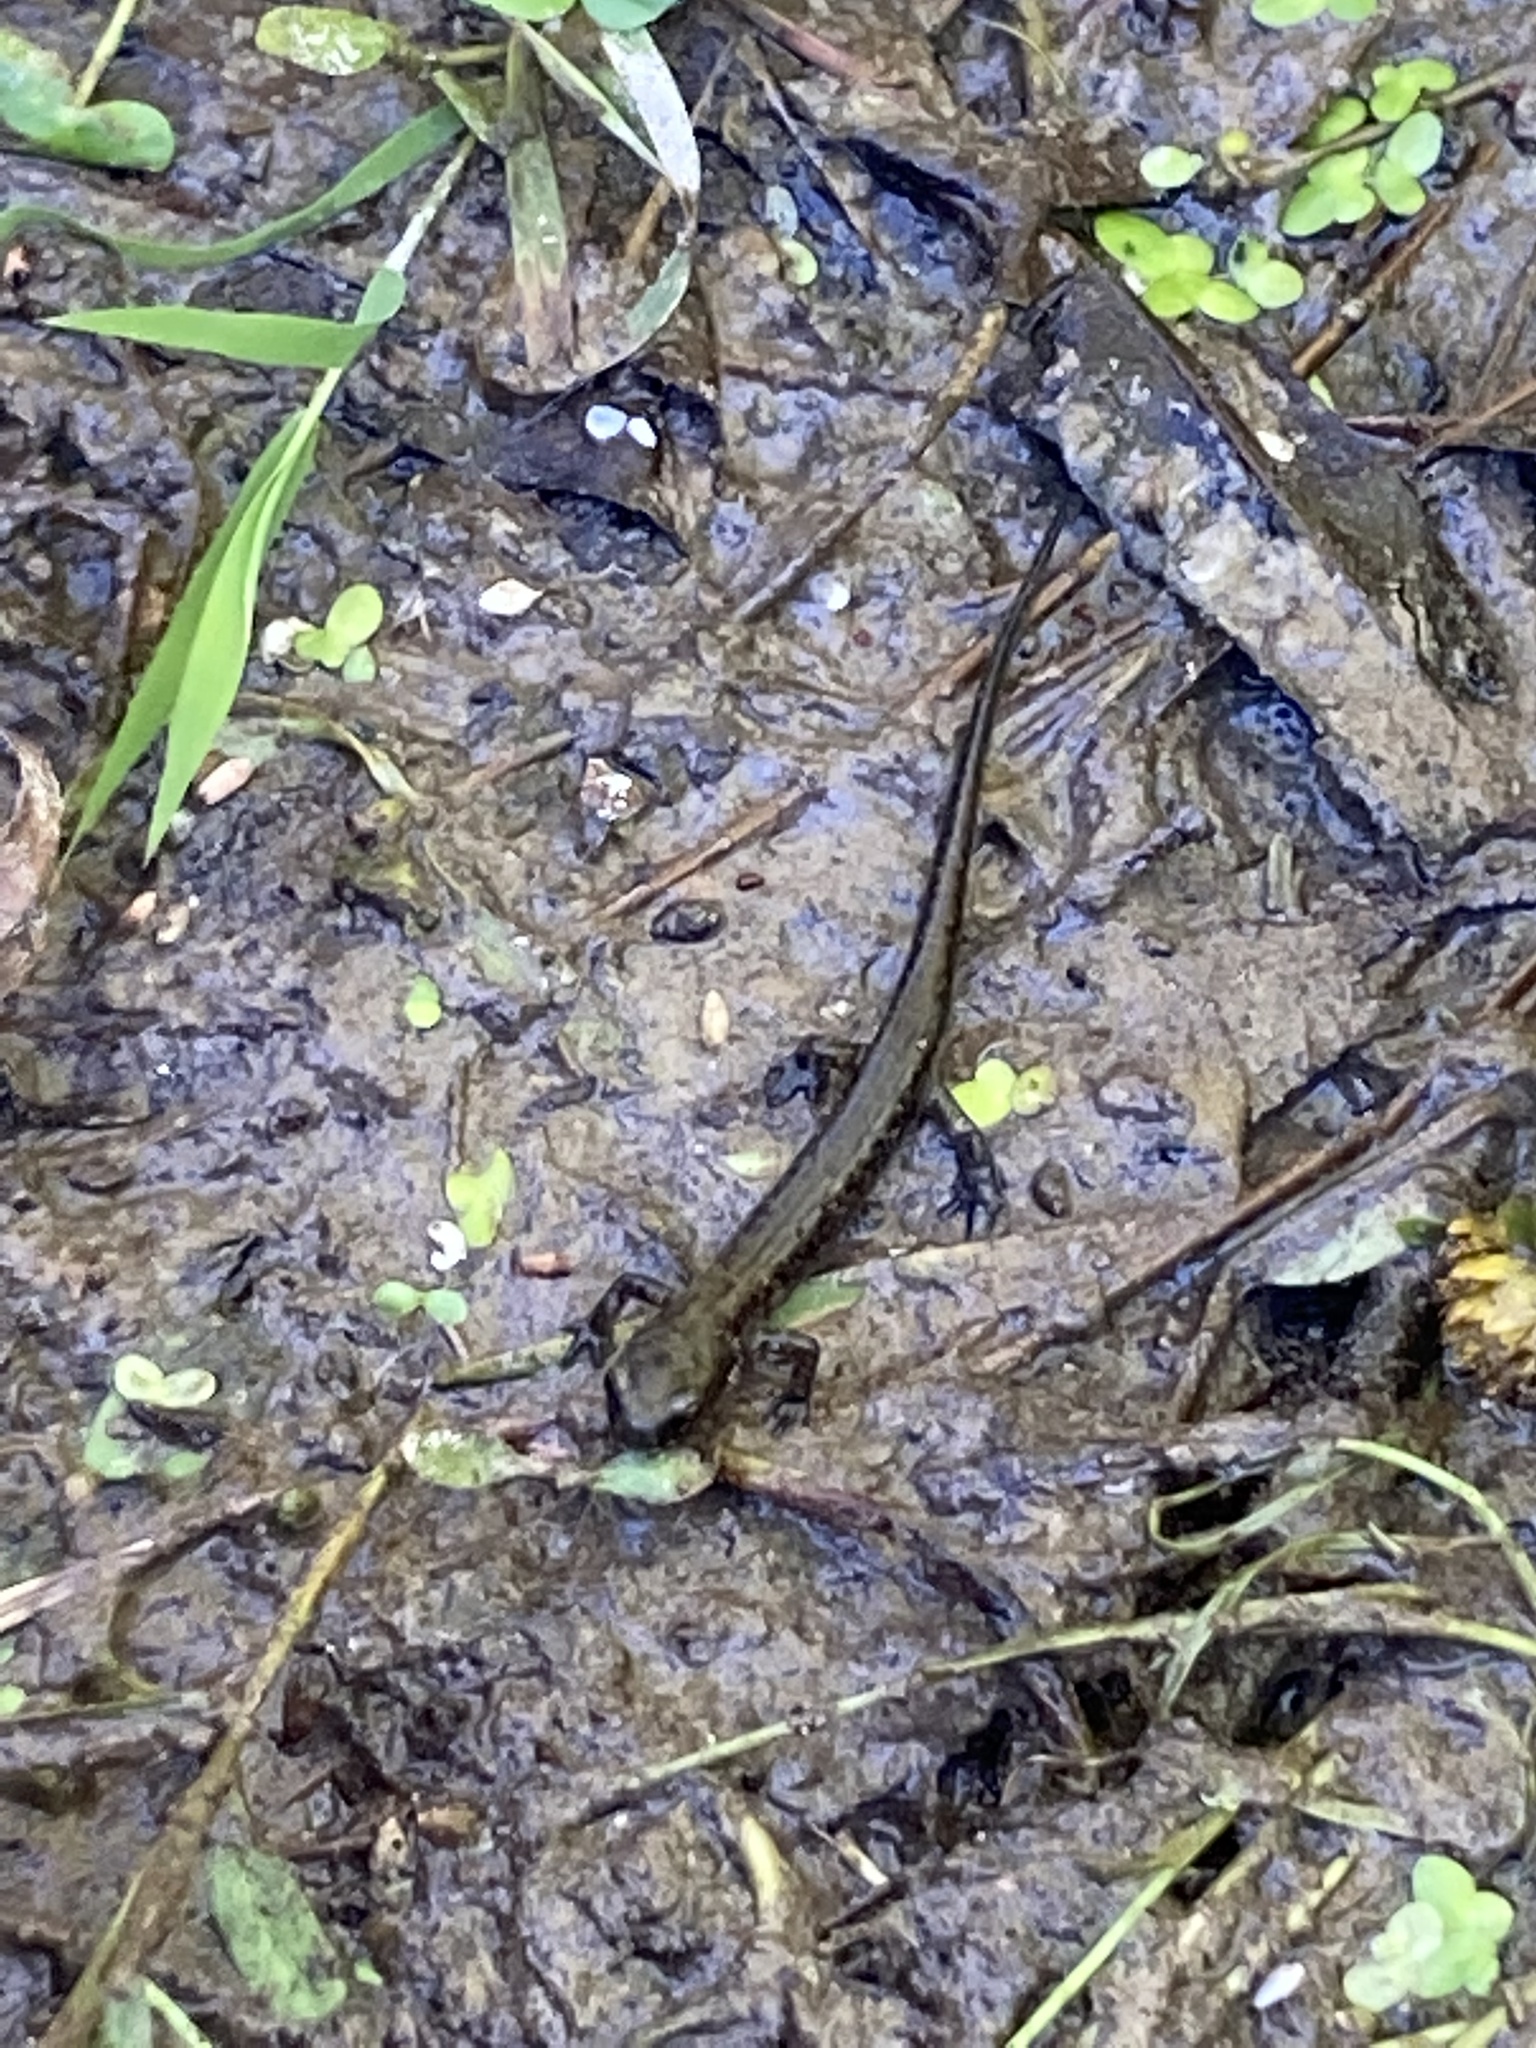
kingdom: Animalia
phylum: Chordata
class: Amphibia
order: Caudata
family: Plethodontidae
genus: Plethodon
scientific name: Plethodon dorsalis
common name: Northern zigzag salamander
